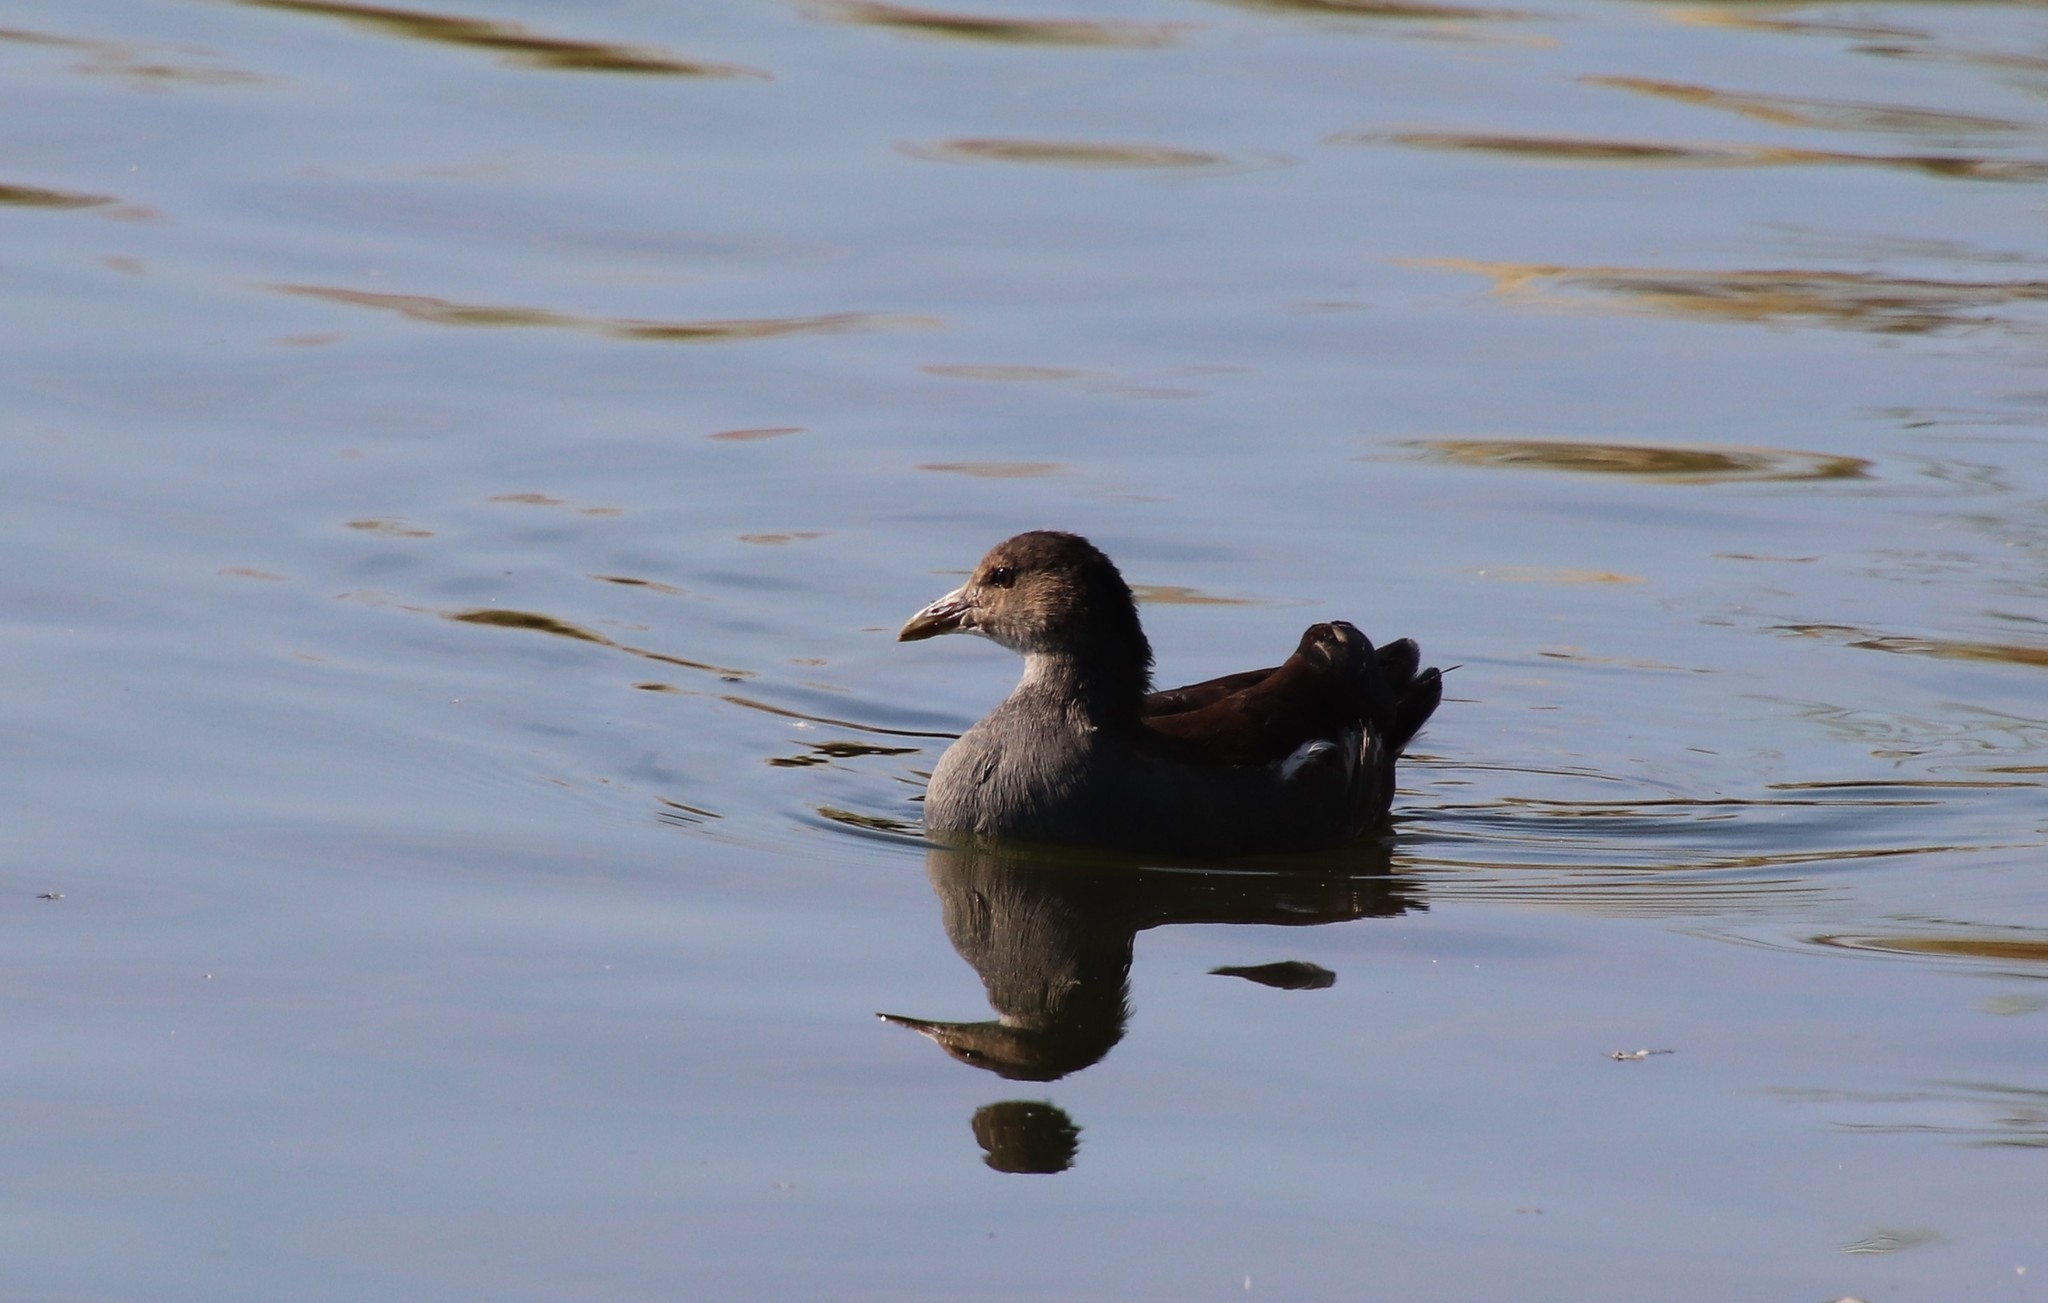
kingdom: Animalia
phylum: Chordata
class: Aves
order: Gruiformes
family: Rallidae
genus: Gallinula
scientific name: Gallinula chloropus
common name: Common moorhen
